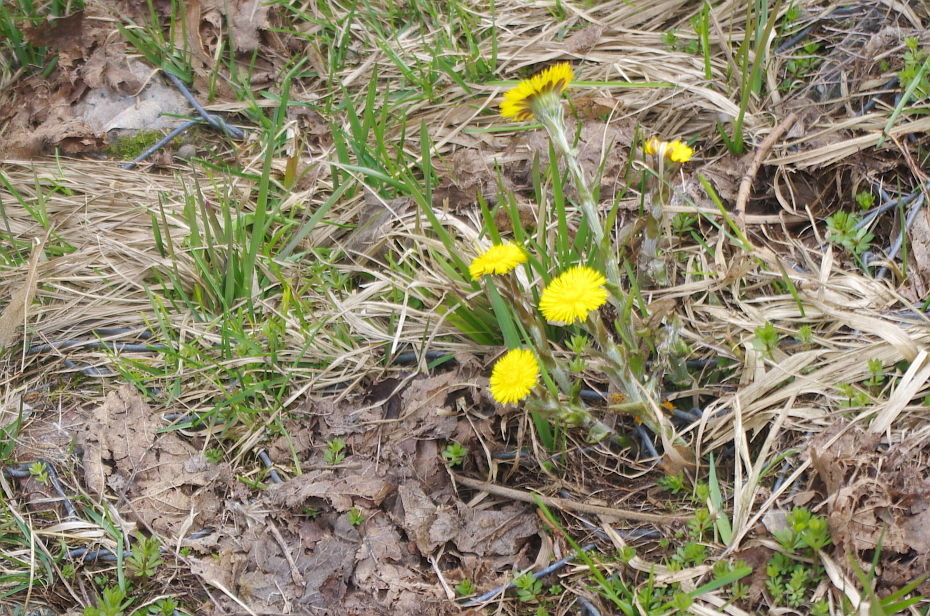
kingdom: Plantae
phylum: Tracheophyta
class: Magnoliopsida
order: Asterales
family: Asteraceae
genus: Tussilago
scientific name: Tussilago farfara
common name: Coltsfoot
